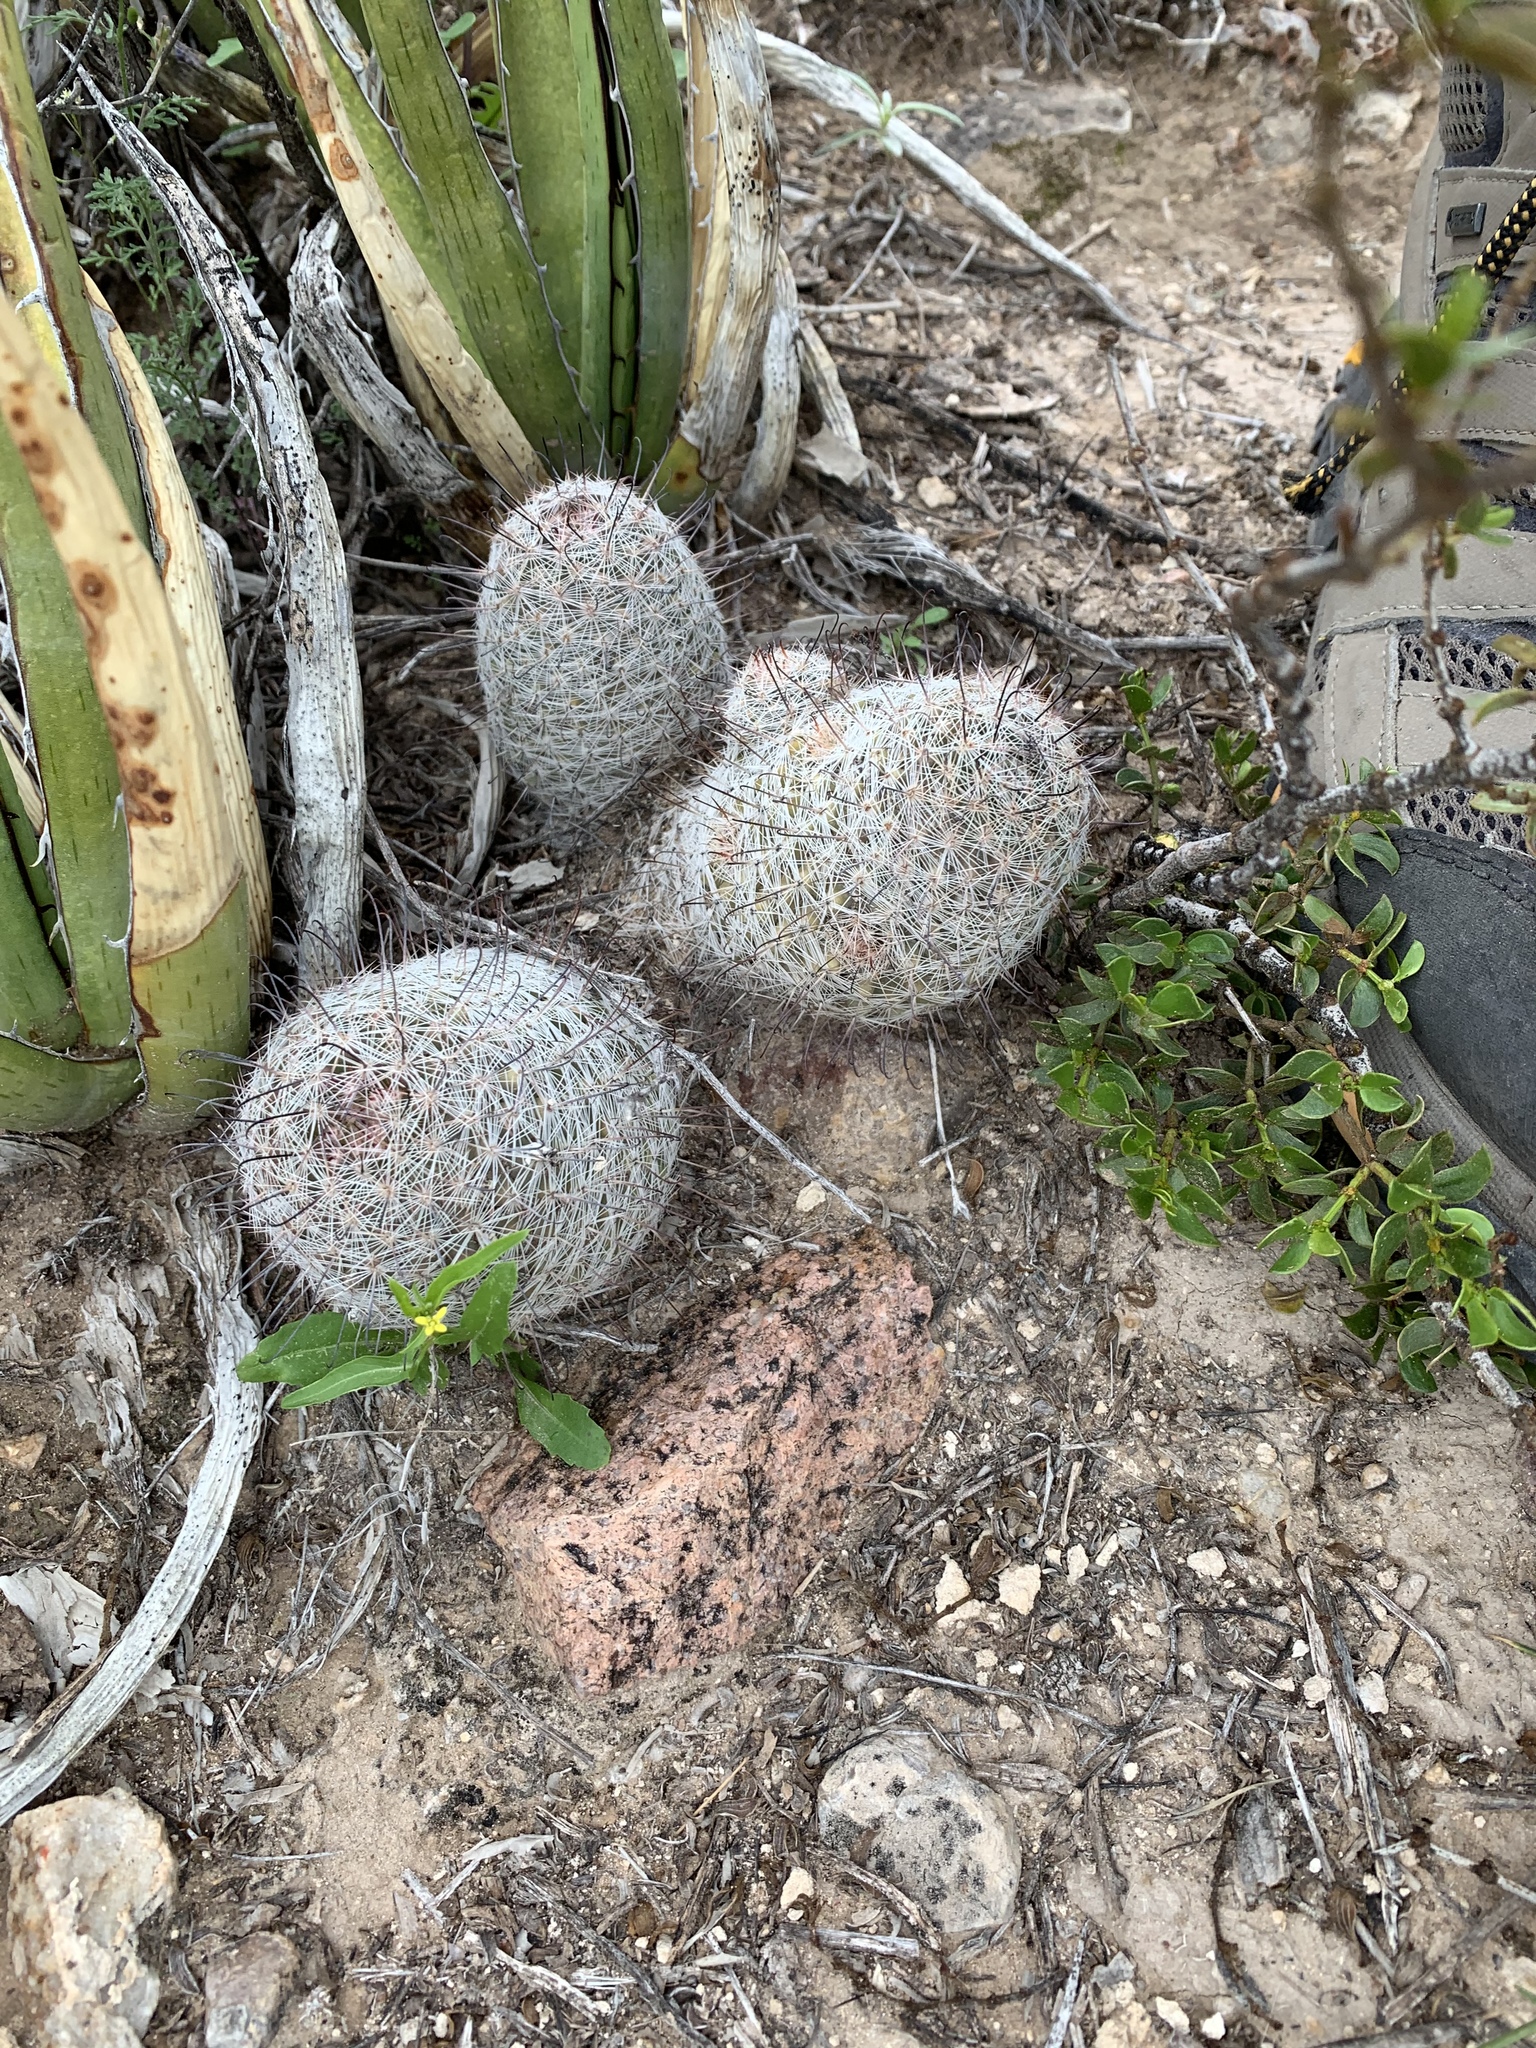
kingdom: Plantae
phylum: Tracheophyta
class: Magnoliopsida
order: Caryophyllales
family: Cactaceae
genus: Cochemiea
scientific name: Cochemiea grahamii
